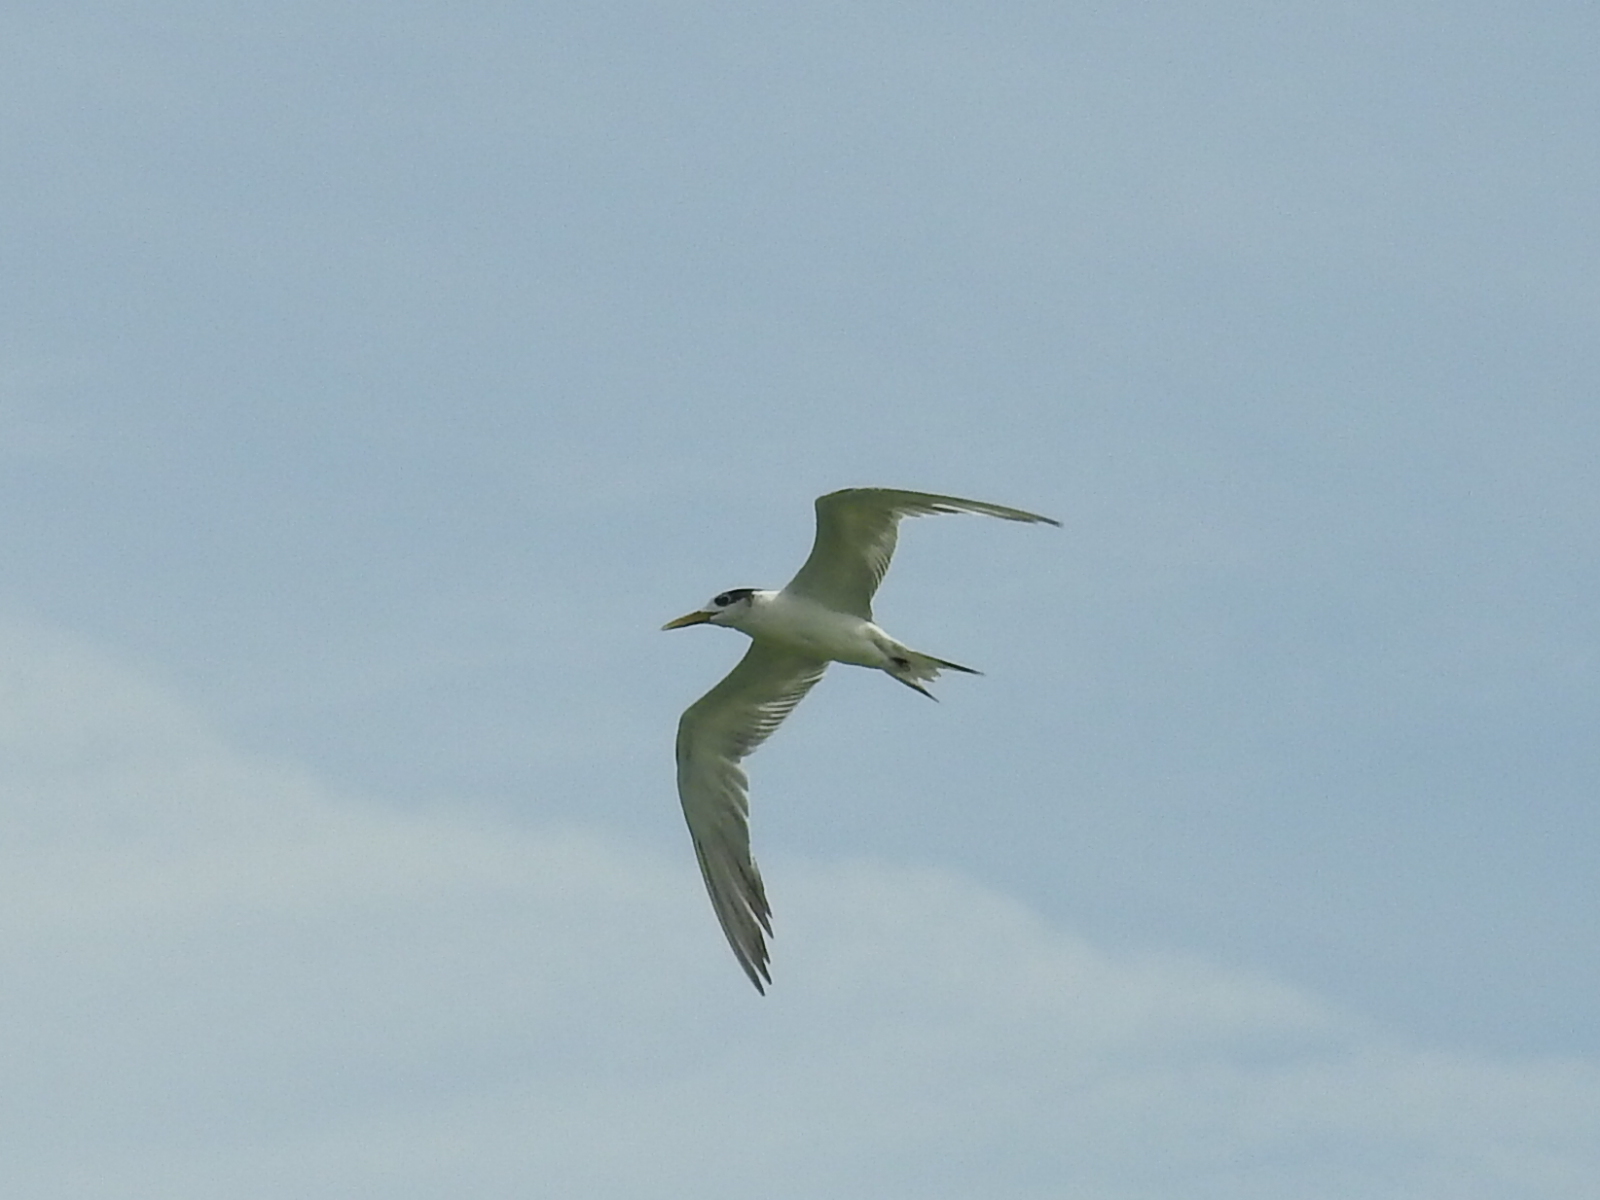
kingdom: Animalia
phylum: Chordata
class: Aves
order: Charadriiformes
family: Laridae
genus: Thalasseus
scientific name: Thalasseus bergii
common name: Greater crested tern
